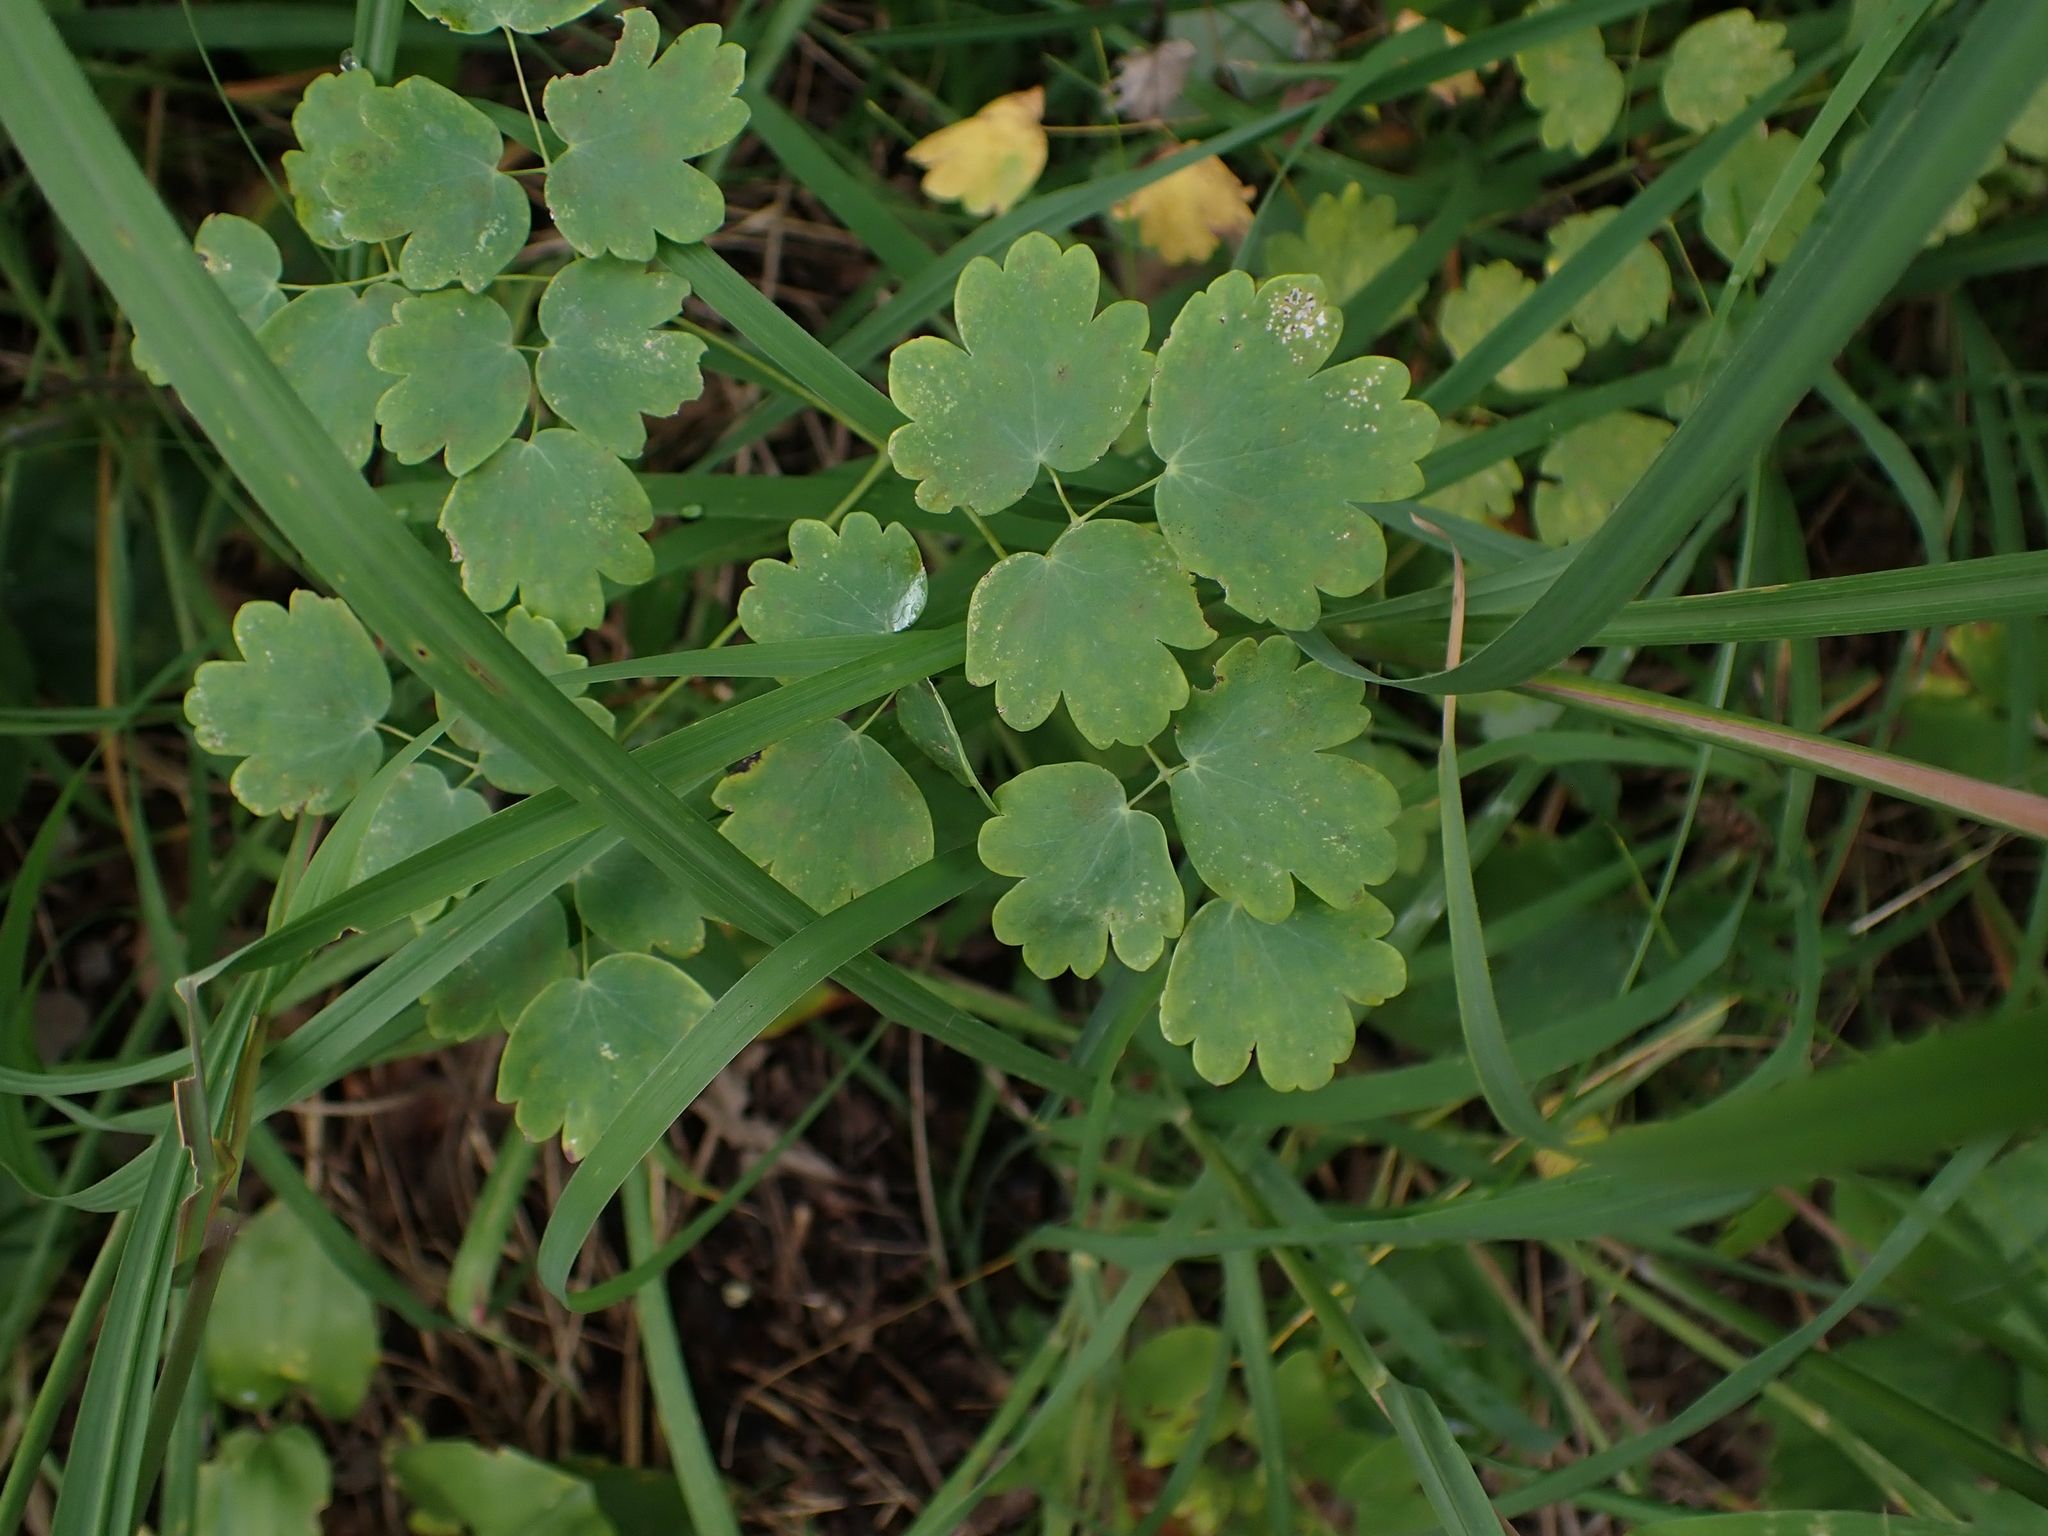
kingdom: Plantae
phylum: Tracheophyta
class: Magnoliopsida
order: Ranunculales
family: Ranunculaceae
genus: Thalictrum
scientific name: Thalictrum venulosum
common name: Early meadow-rue
